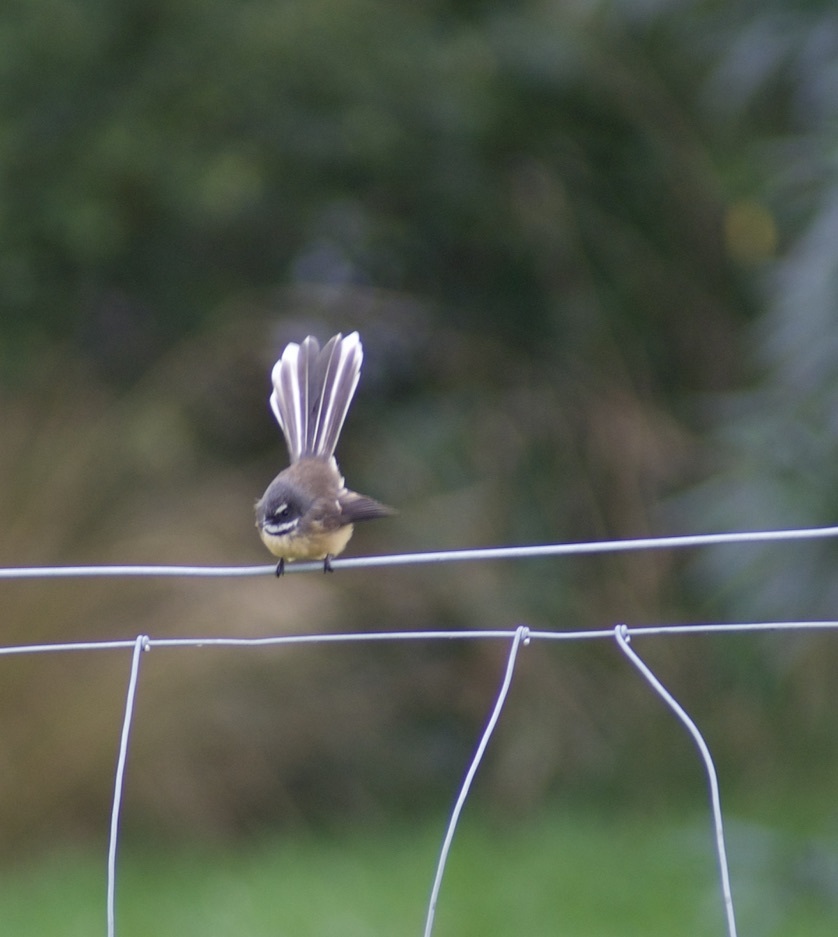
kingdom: Animalia
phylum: Chordata
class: Aves
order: Passeriformes
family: Rhipiduridae
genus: Rhipidura
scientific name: Rhipidura fuliginosa
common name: New zealand fantail
